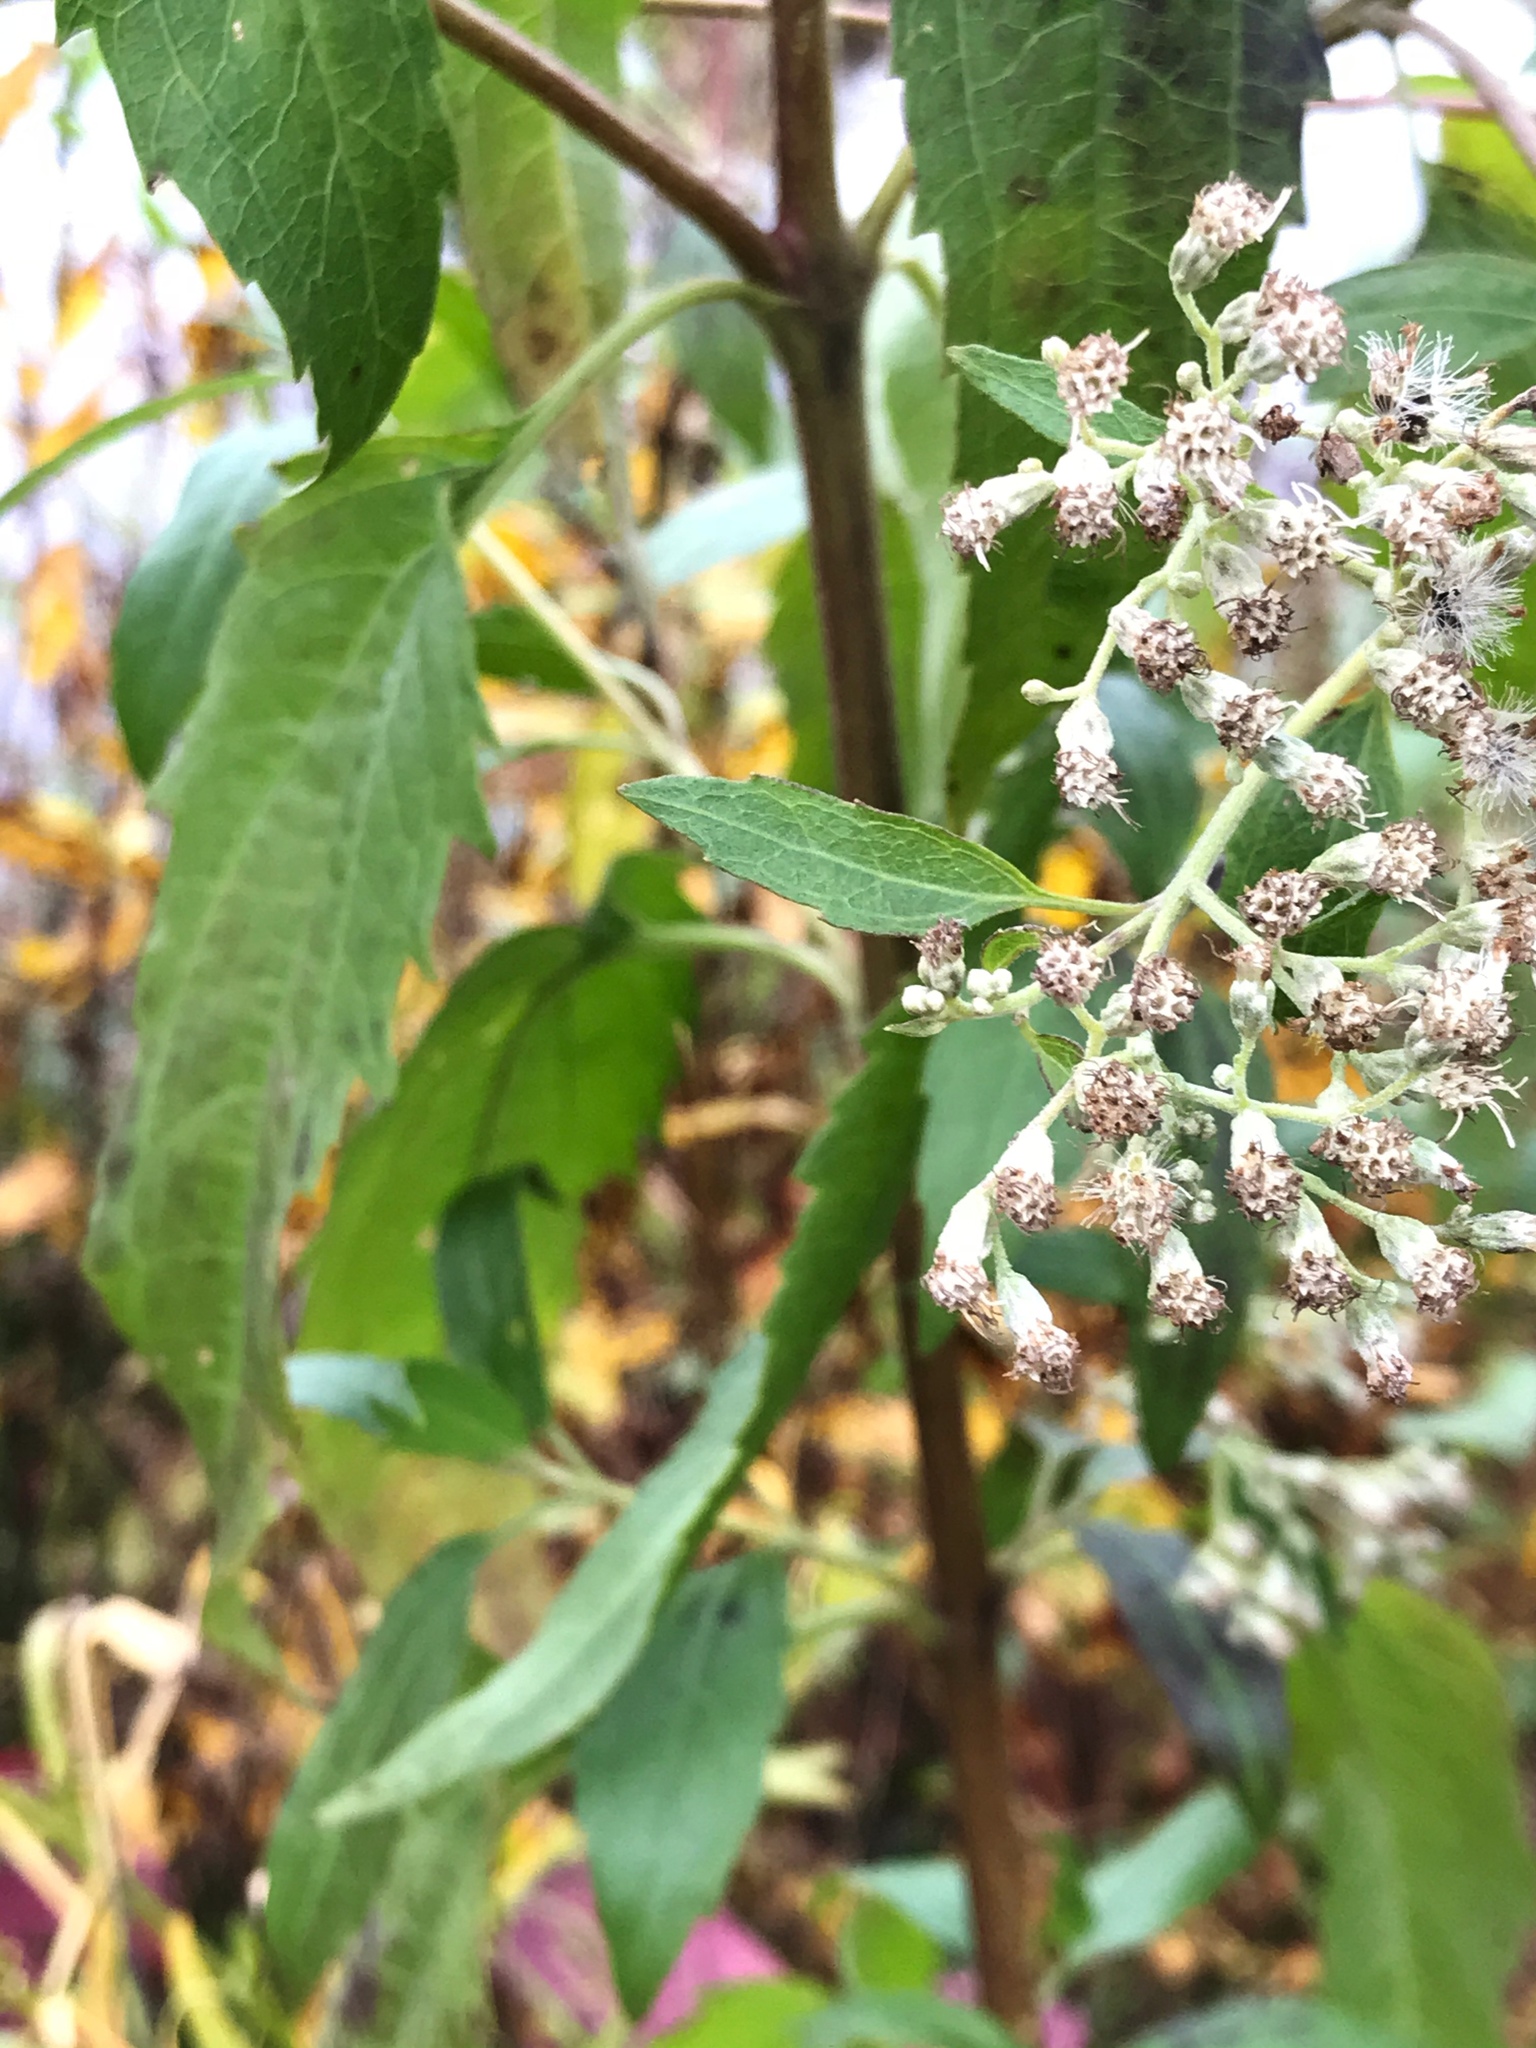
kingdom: Plantae
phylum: Tracheophyta
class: Magnoliopsida
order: Asterales
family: Asteraceae
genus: Eupatorium
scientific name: Eupatorium serotinum
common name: Late boneset
